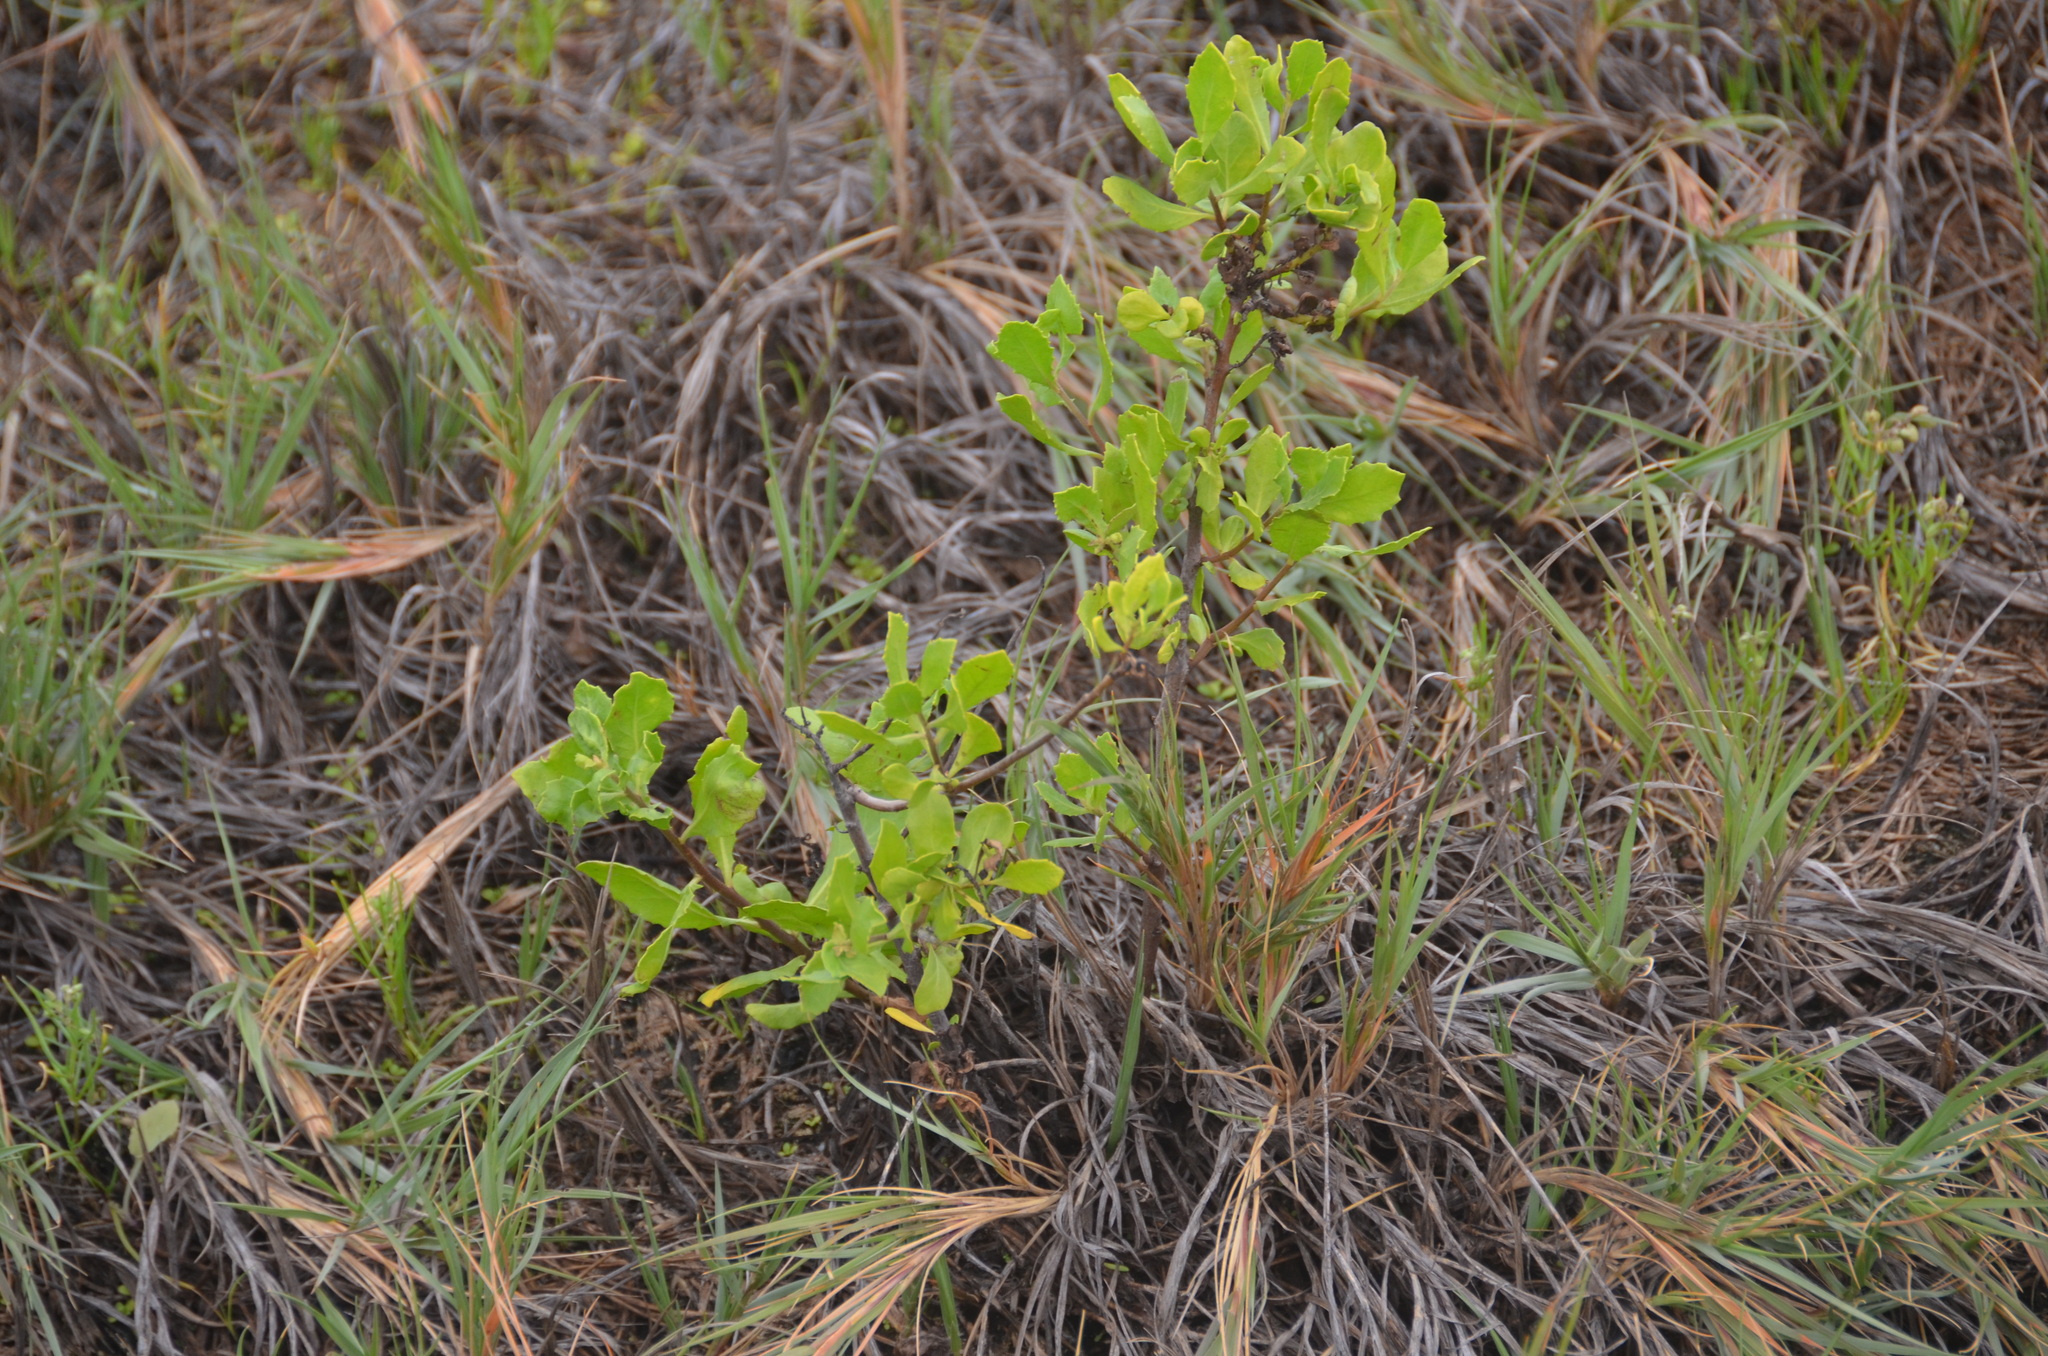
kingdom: Plantae
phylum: Tracheophyta
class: Magnoliopsida
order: Asterales
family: Asteraceae
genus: Pluchea
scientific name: Pluchea indica
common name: Indian fleabane
